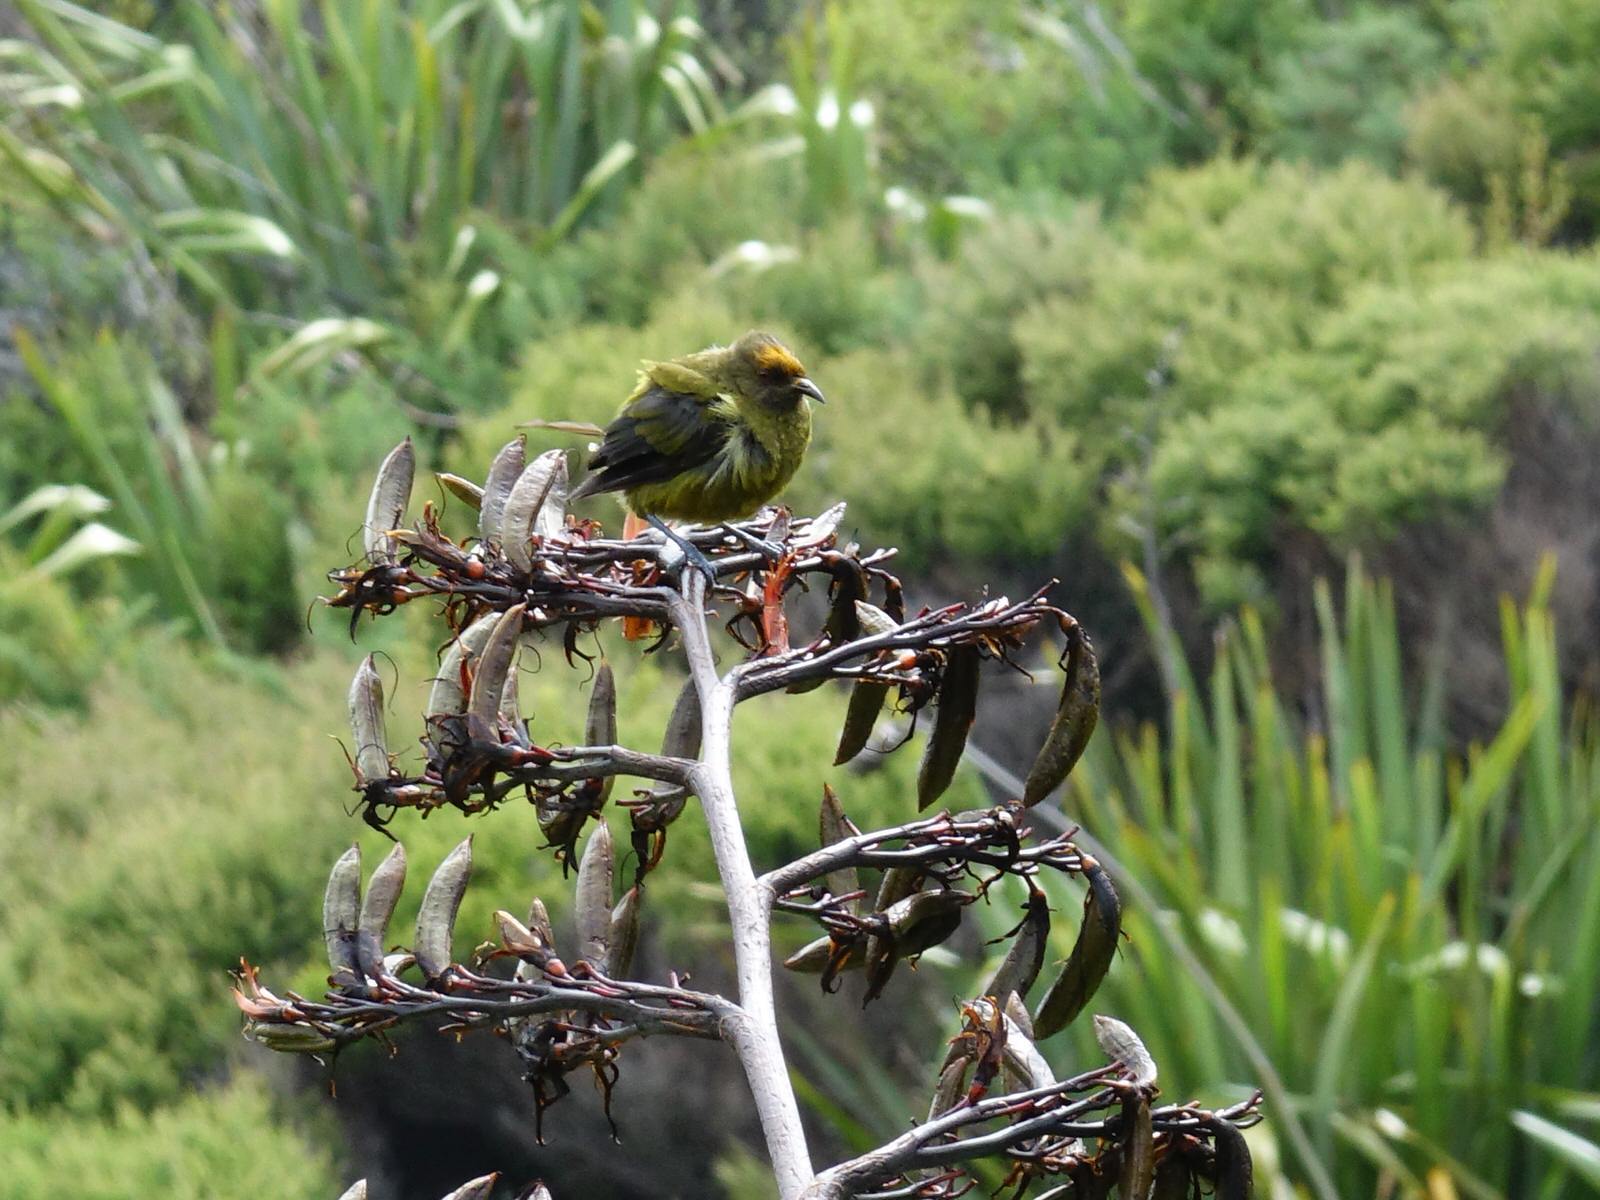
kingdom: Animalia
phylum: Chordata
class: Aves
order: Passeriformes
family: Meliphagidae
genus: Anthornis
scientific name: Anthornis melanura
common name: New zealand bellbird
